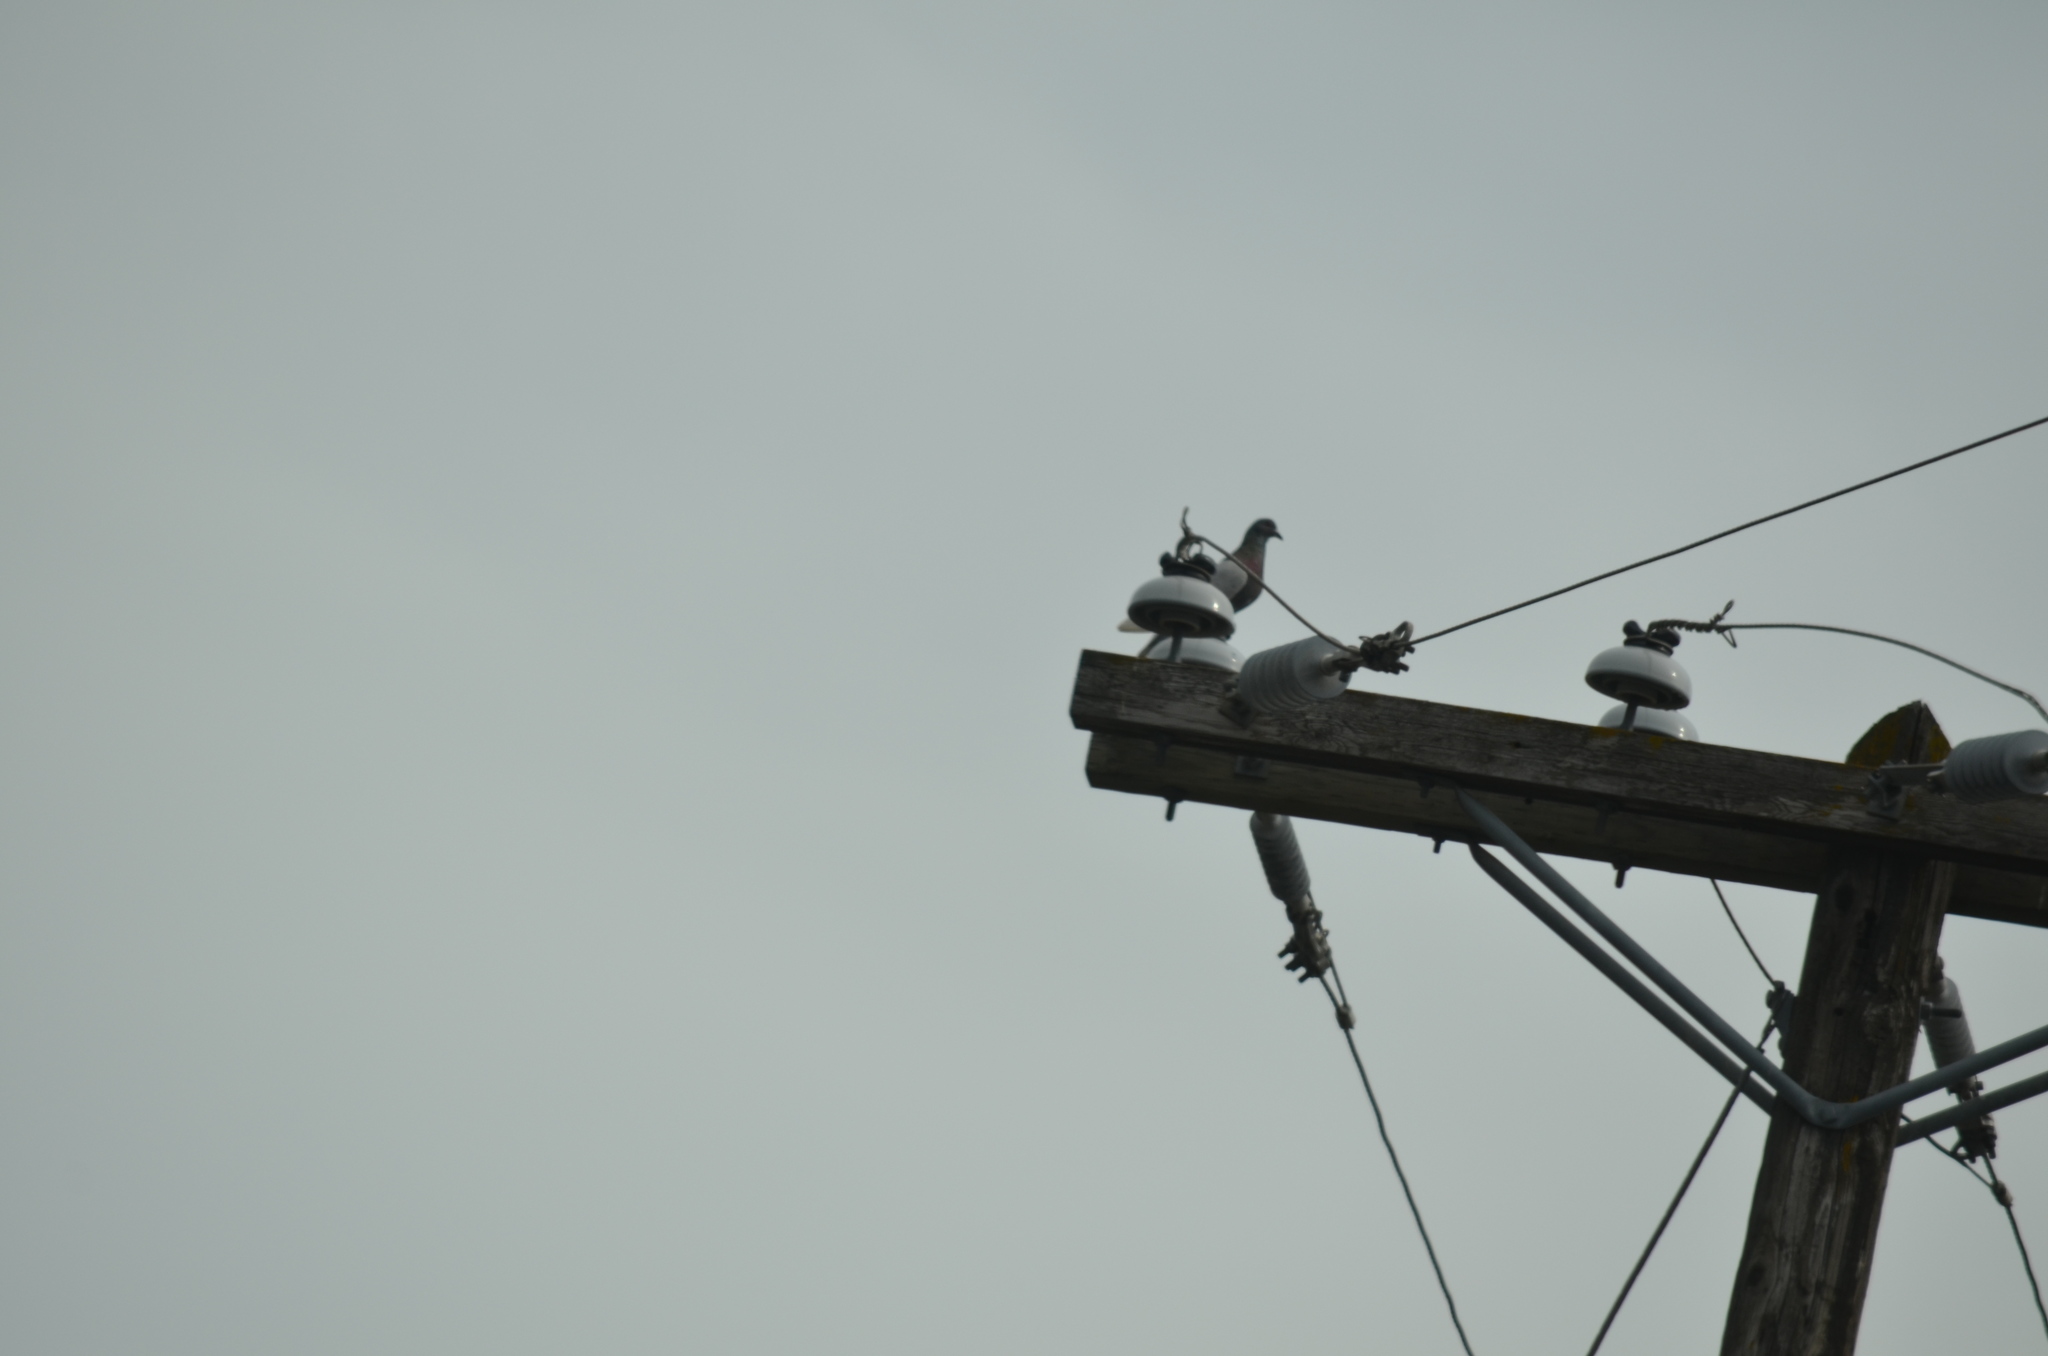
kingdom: Animalia
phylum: Chordata
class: Aves
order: Columbiformes
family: Columbidae
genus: Columba
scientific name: Columba livia
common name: Rock pigeon
